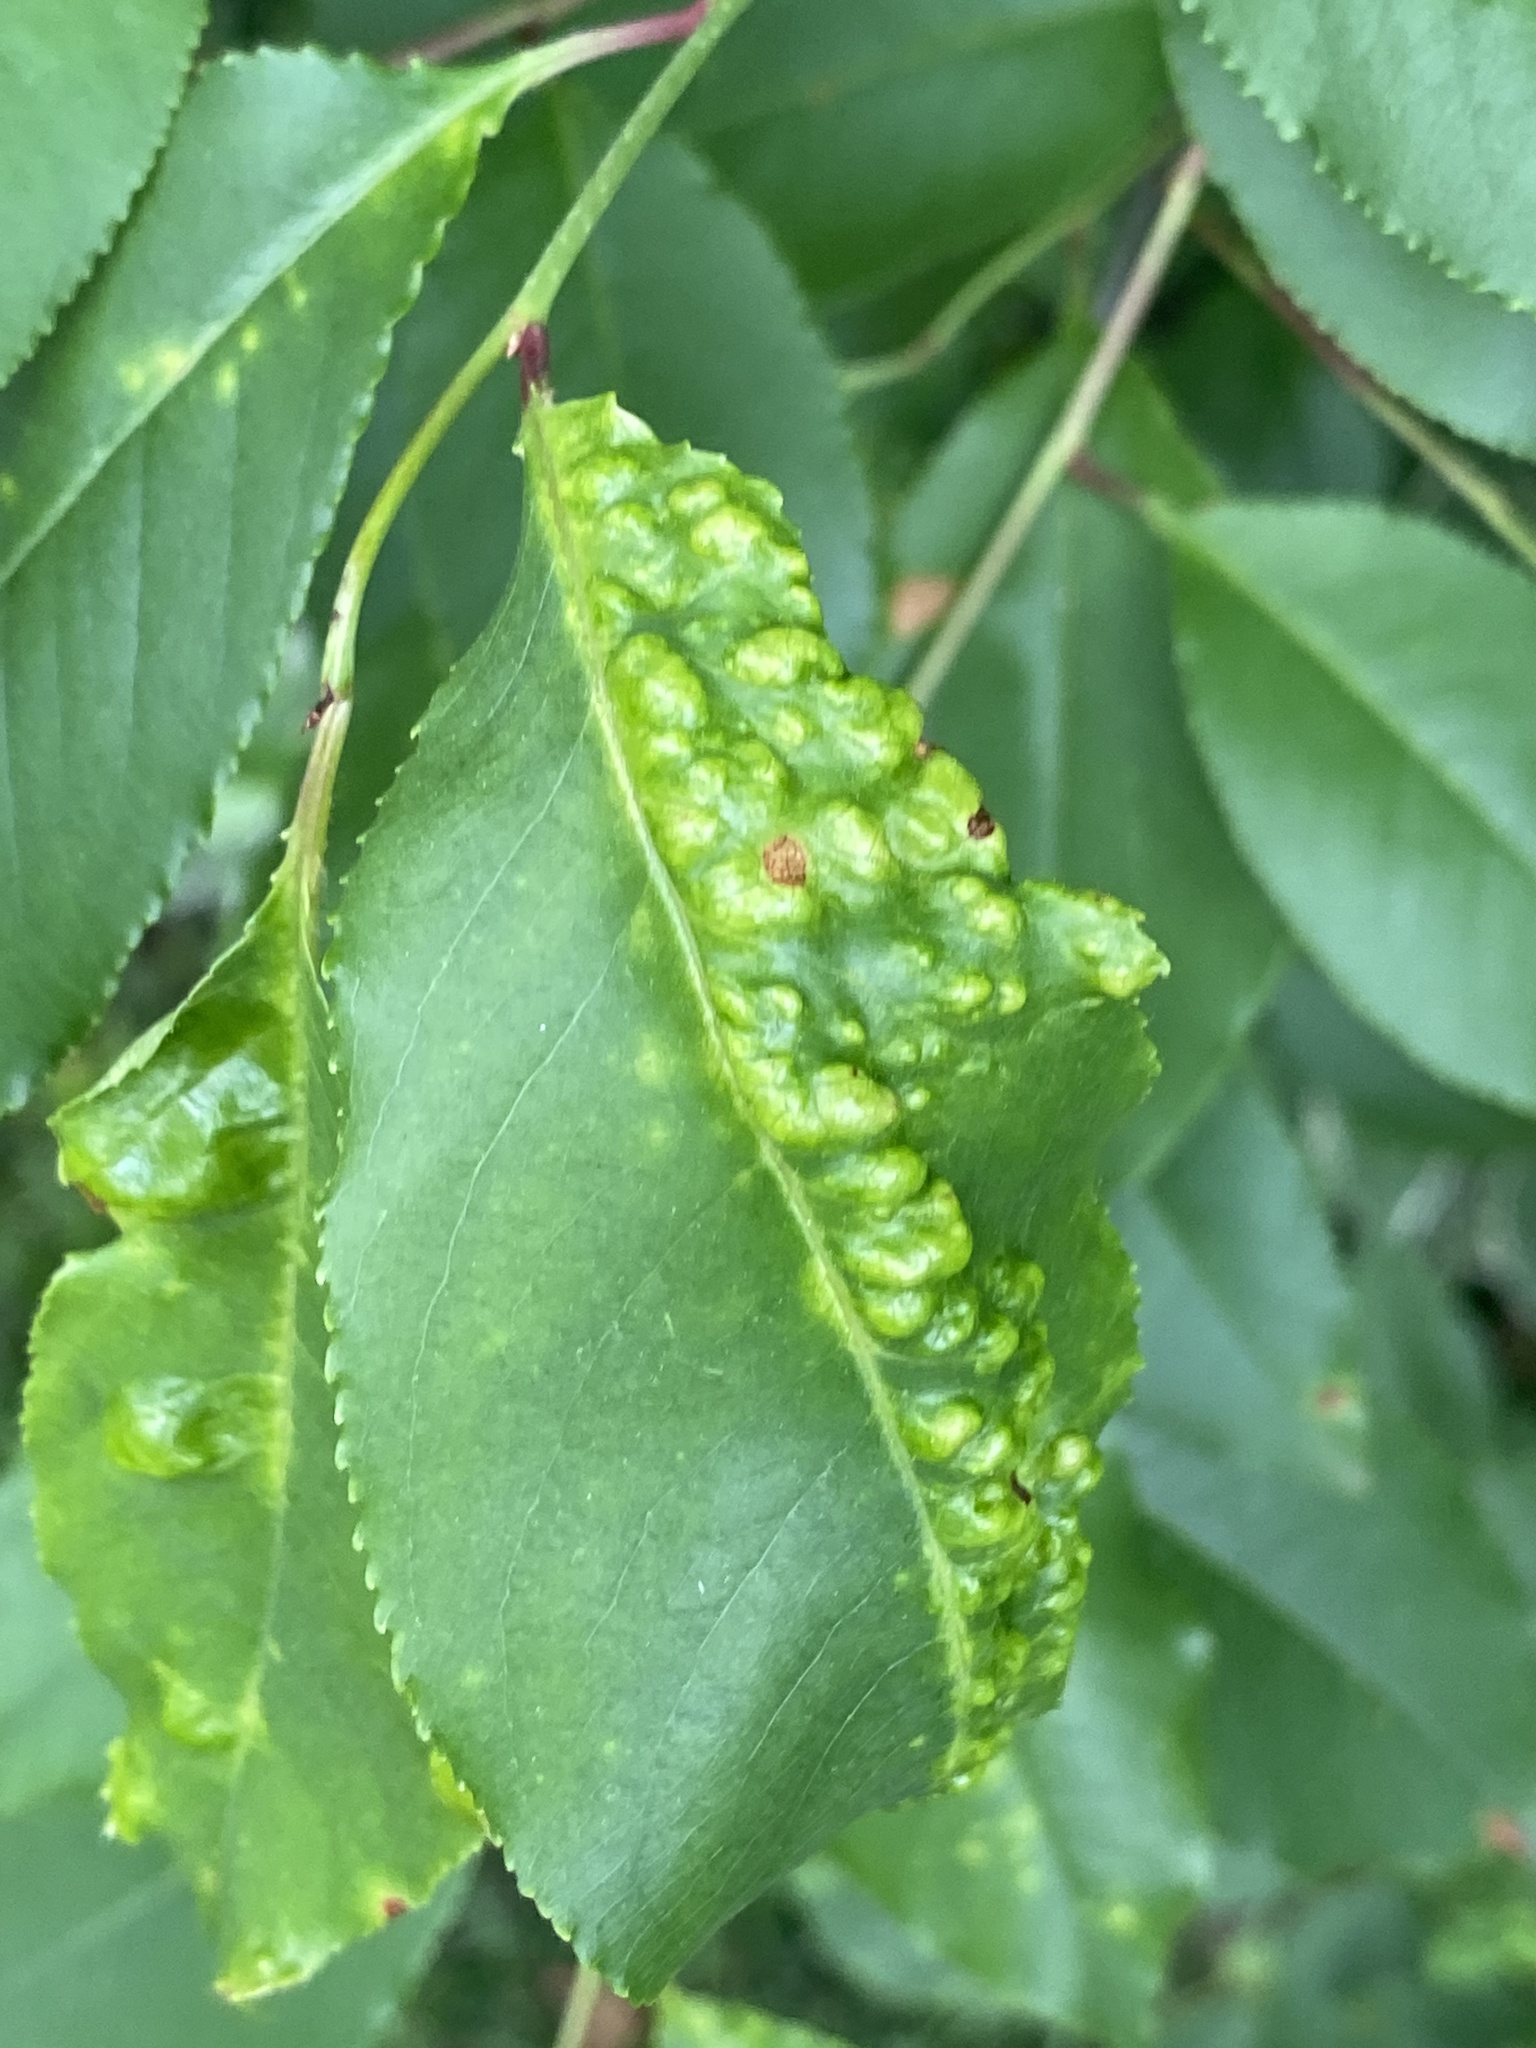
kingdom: Fungi
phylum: Ascomycota
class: Taphrinomycetes
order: Taphrinales
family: Taphrinaceae
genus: Taphrina
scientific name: Taphrina farlowii
